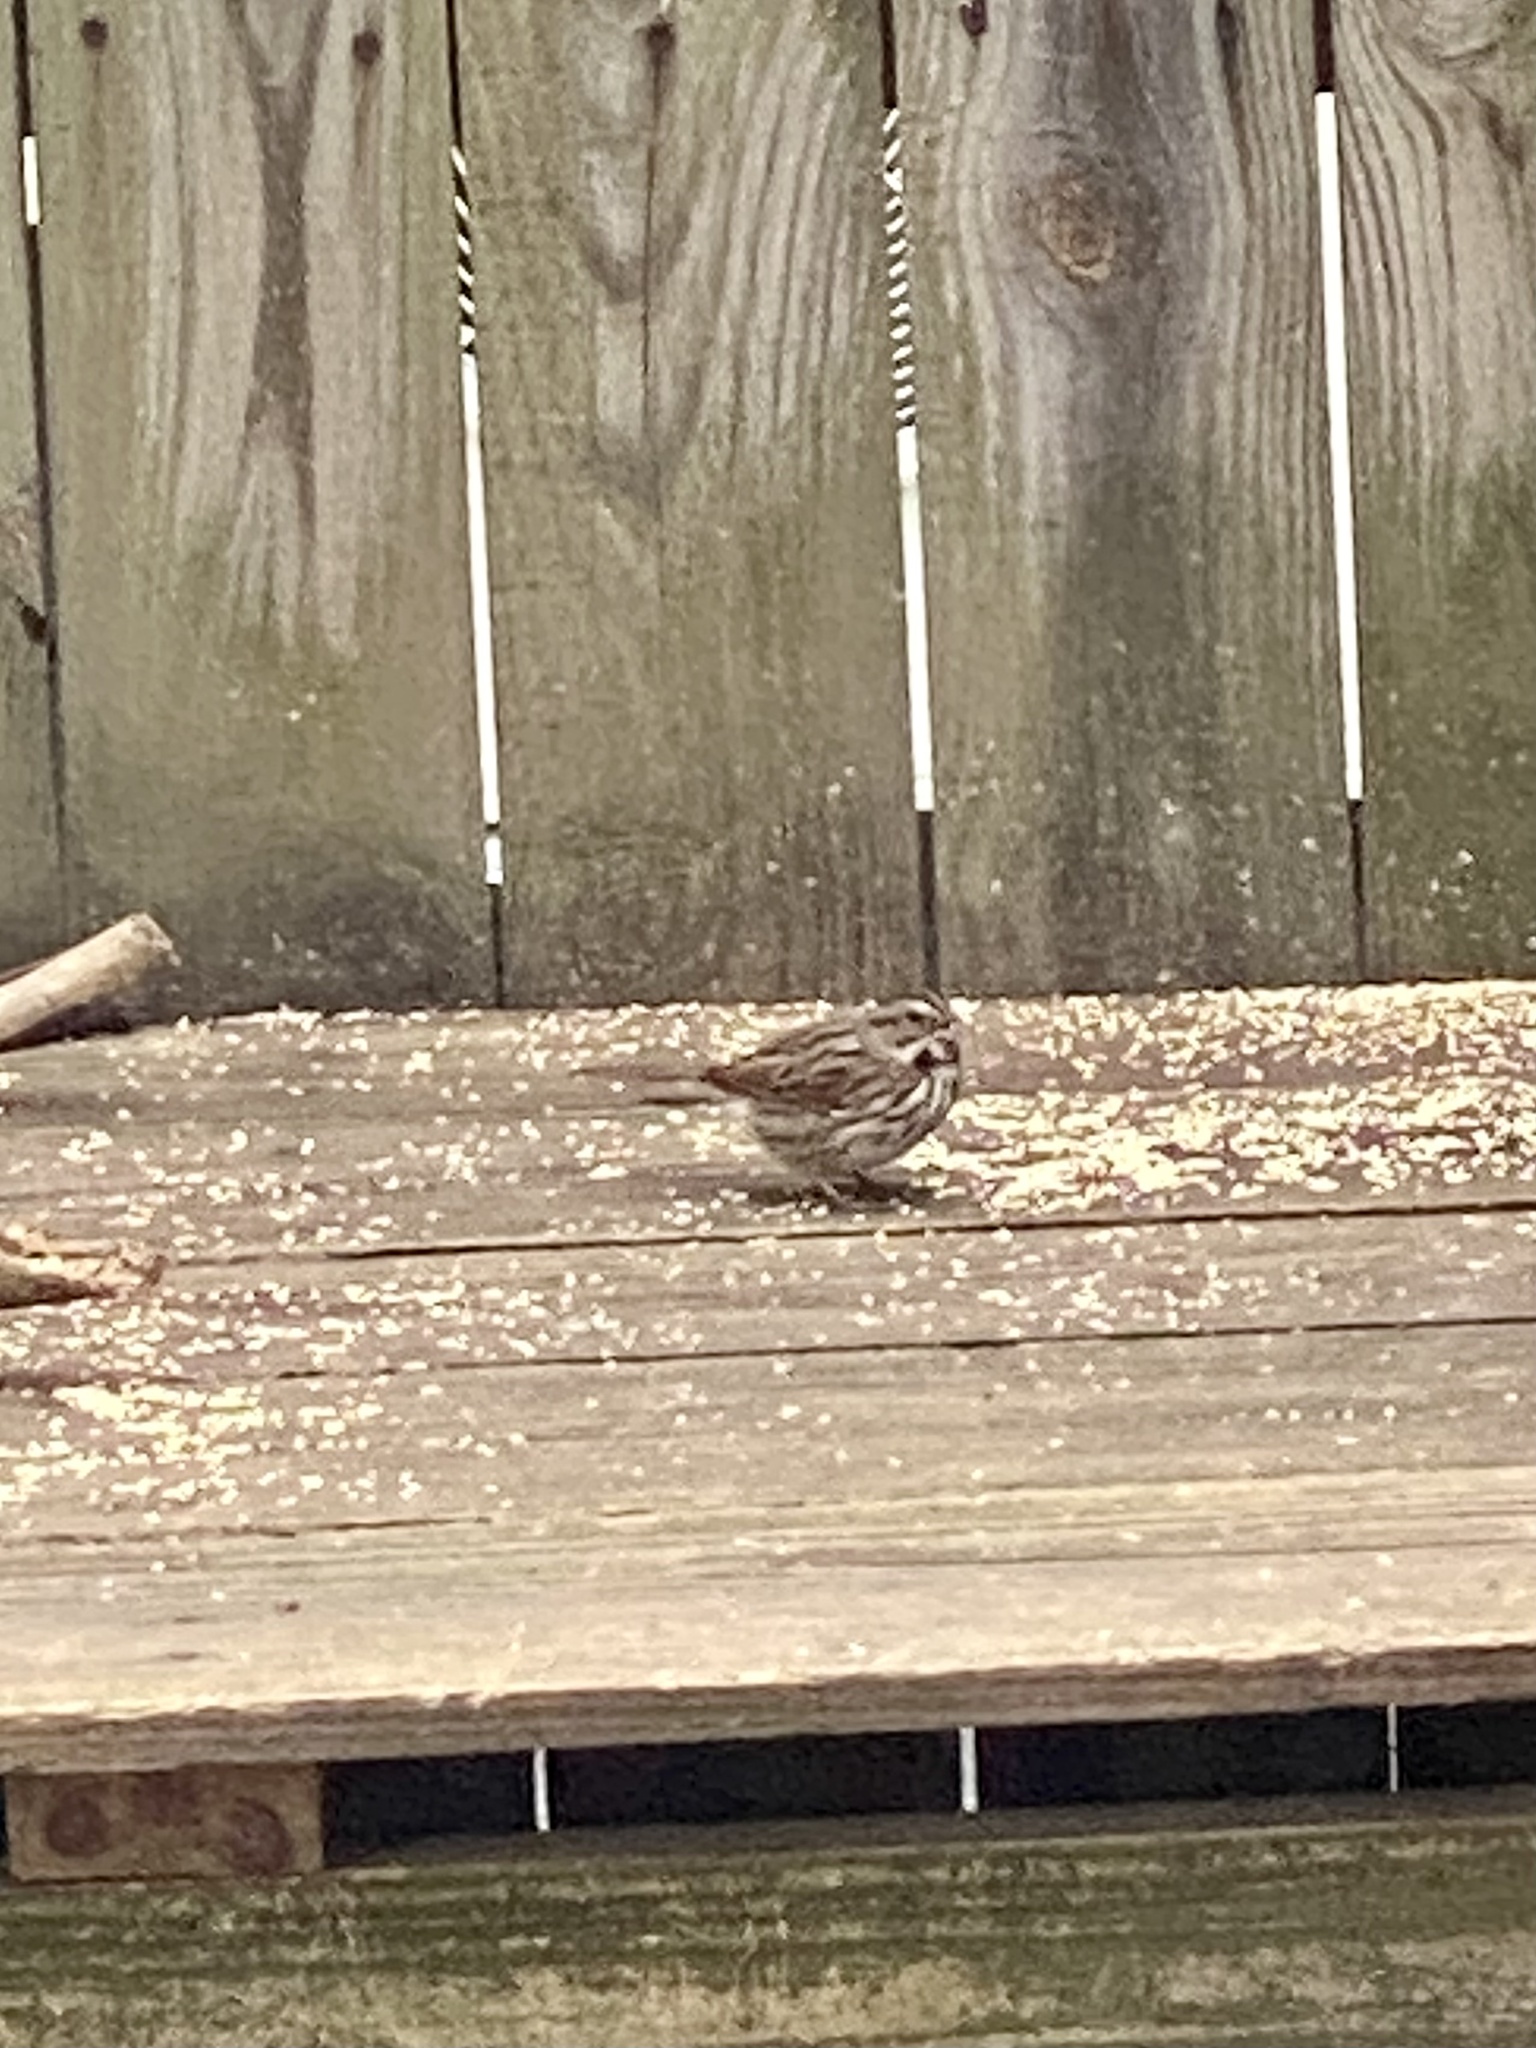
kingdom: Animalia
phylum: Chordata
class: Aves
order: Passeriformes
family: Passerellidae
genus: Melospiza
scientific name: Melospiza melodia
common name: Song sparrow
